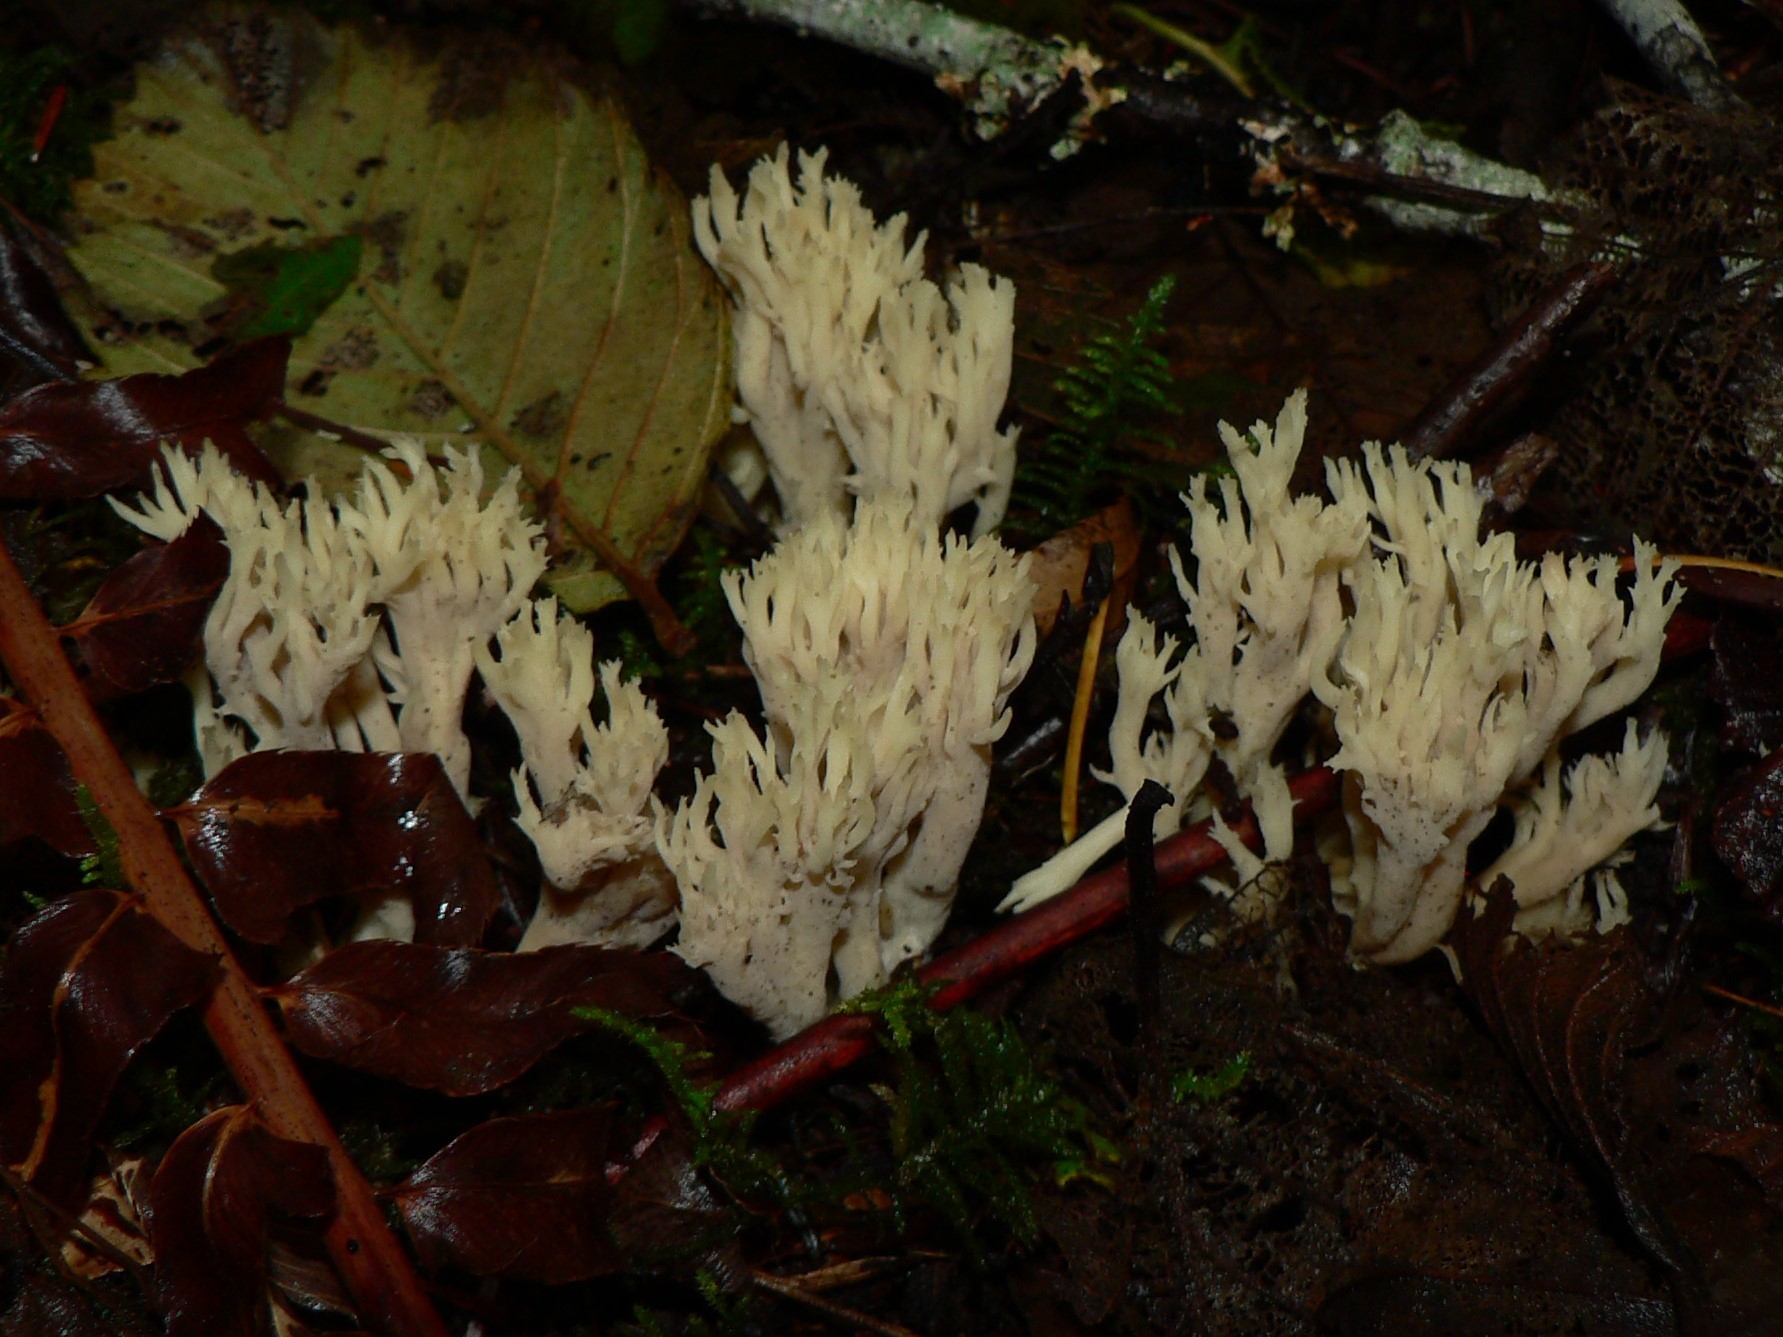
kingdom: Fungi
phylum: Basidiomycota
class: Agaricomycetes
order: Cantharellales
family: Hydnaceae
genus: Clavulina
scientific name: Clavulina coralloides
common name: Crested coral
